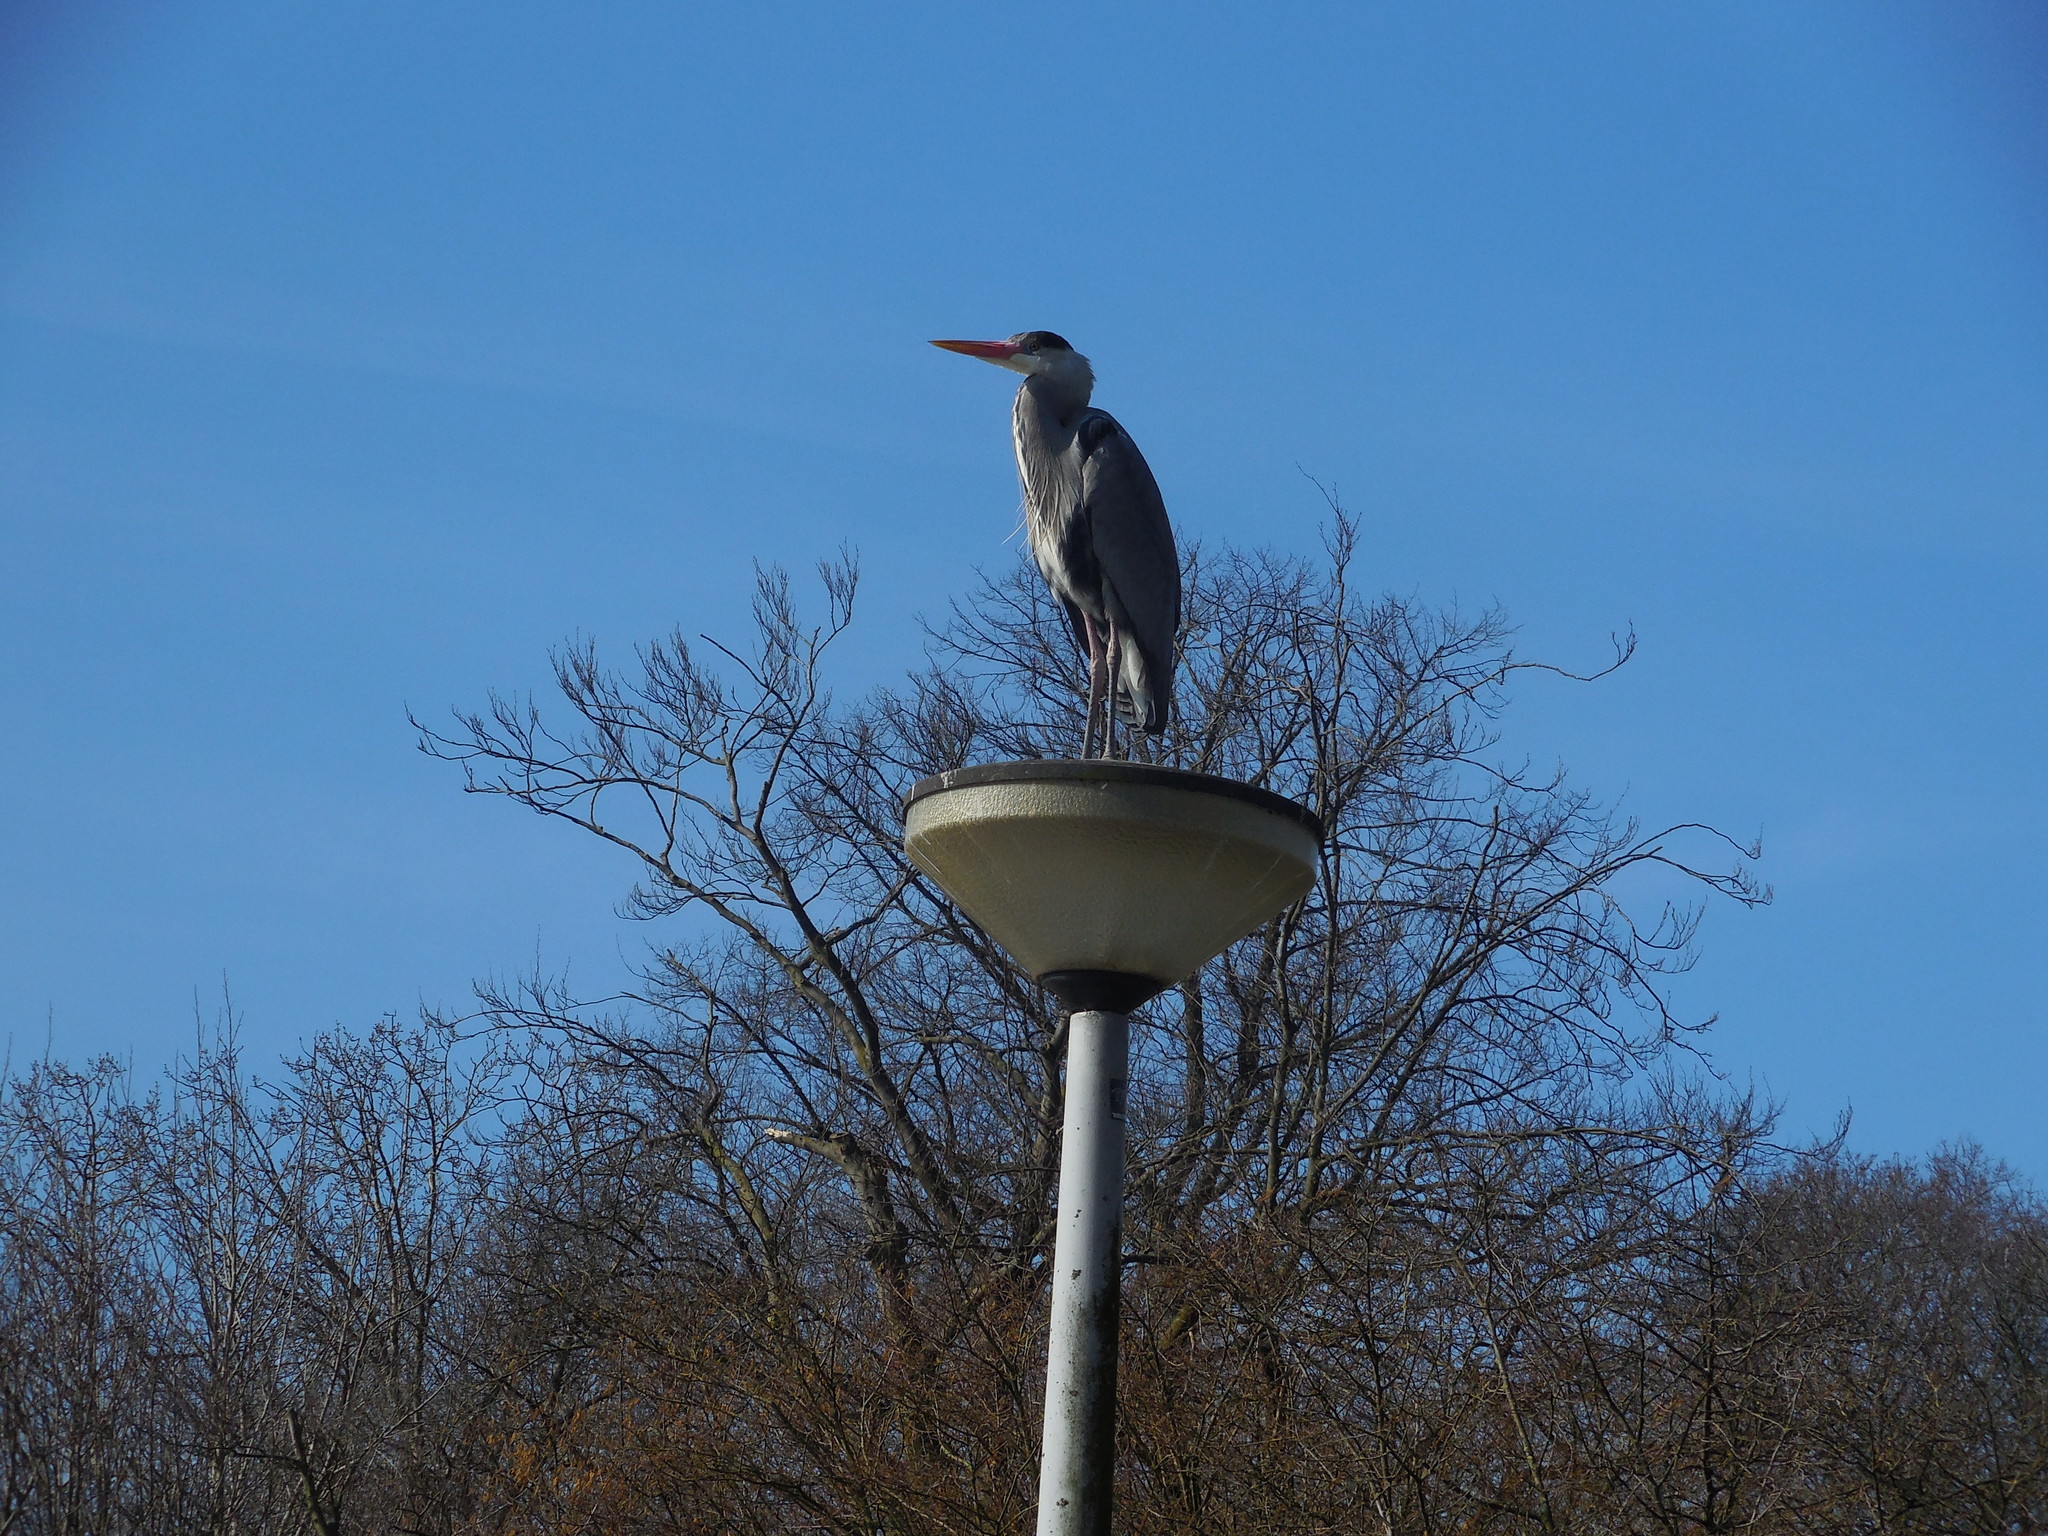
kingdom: Animalia
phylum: Chordata
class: Aves
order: Pelecaniformes
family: Ardeidae
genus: Ardea
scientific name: Ardea cinerea
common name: Grey heron
